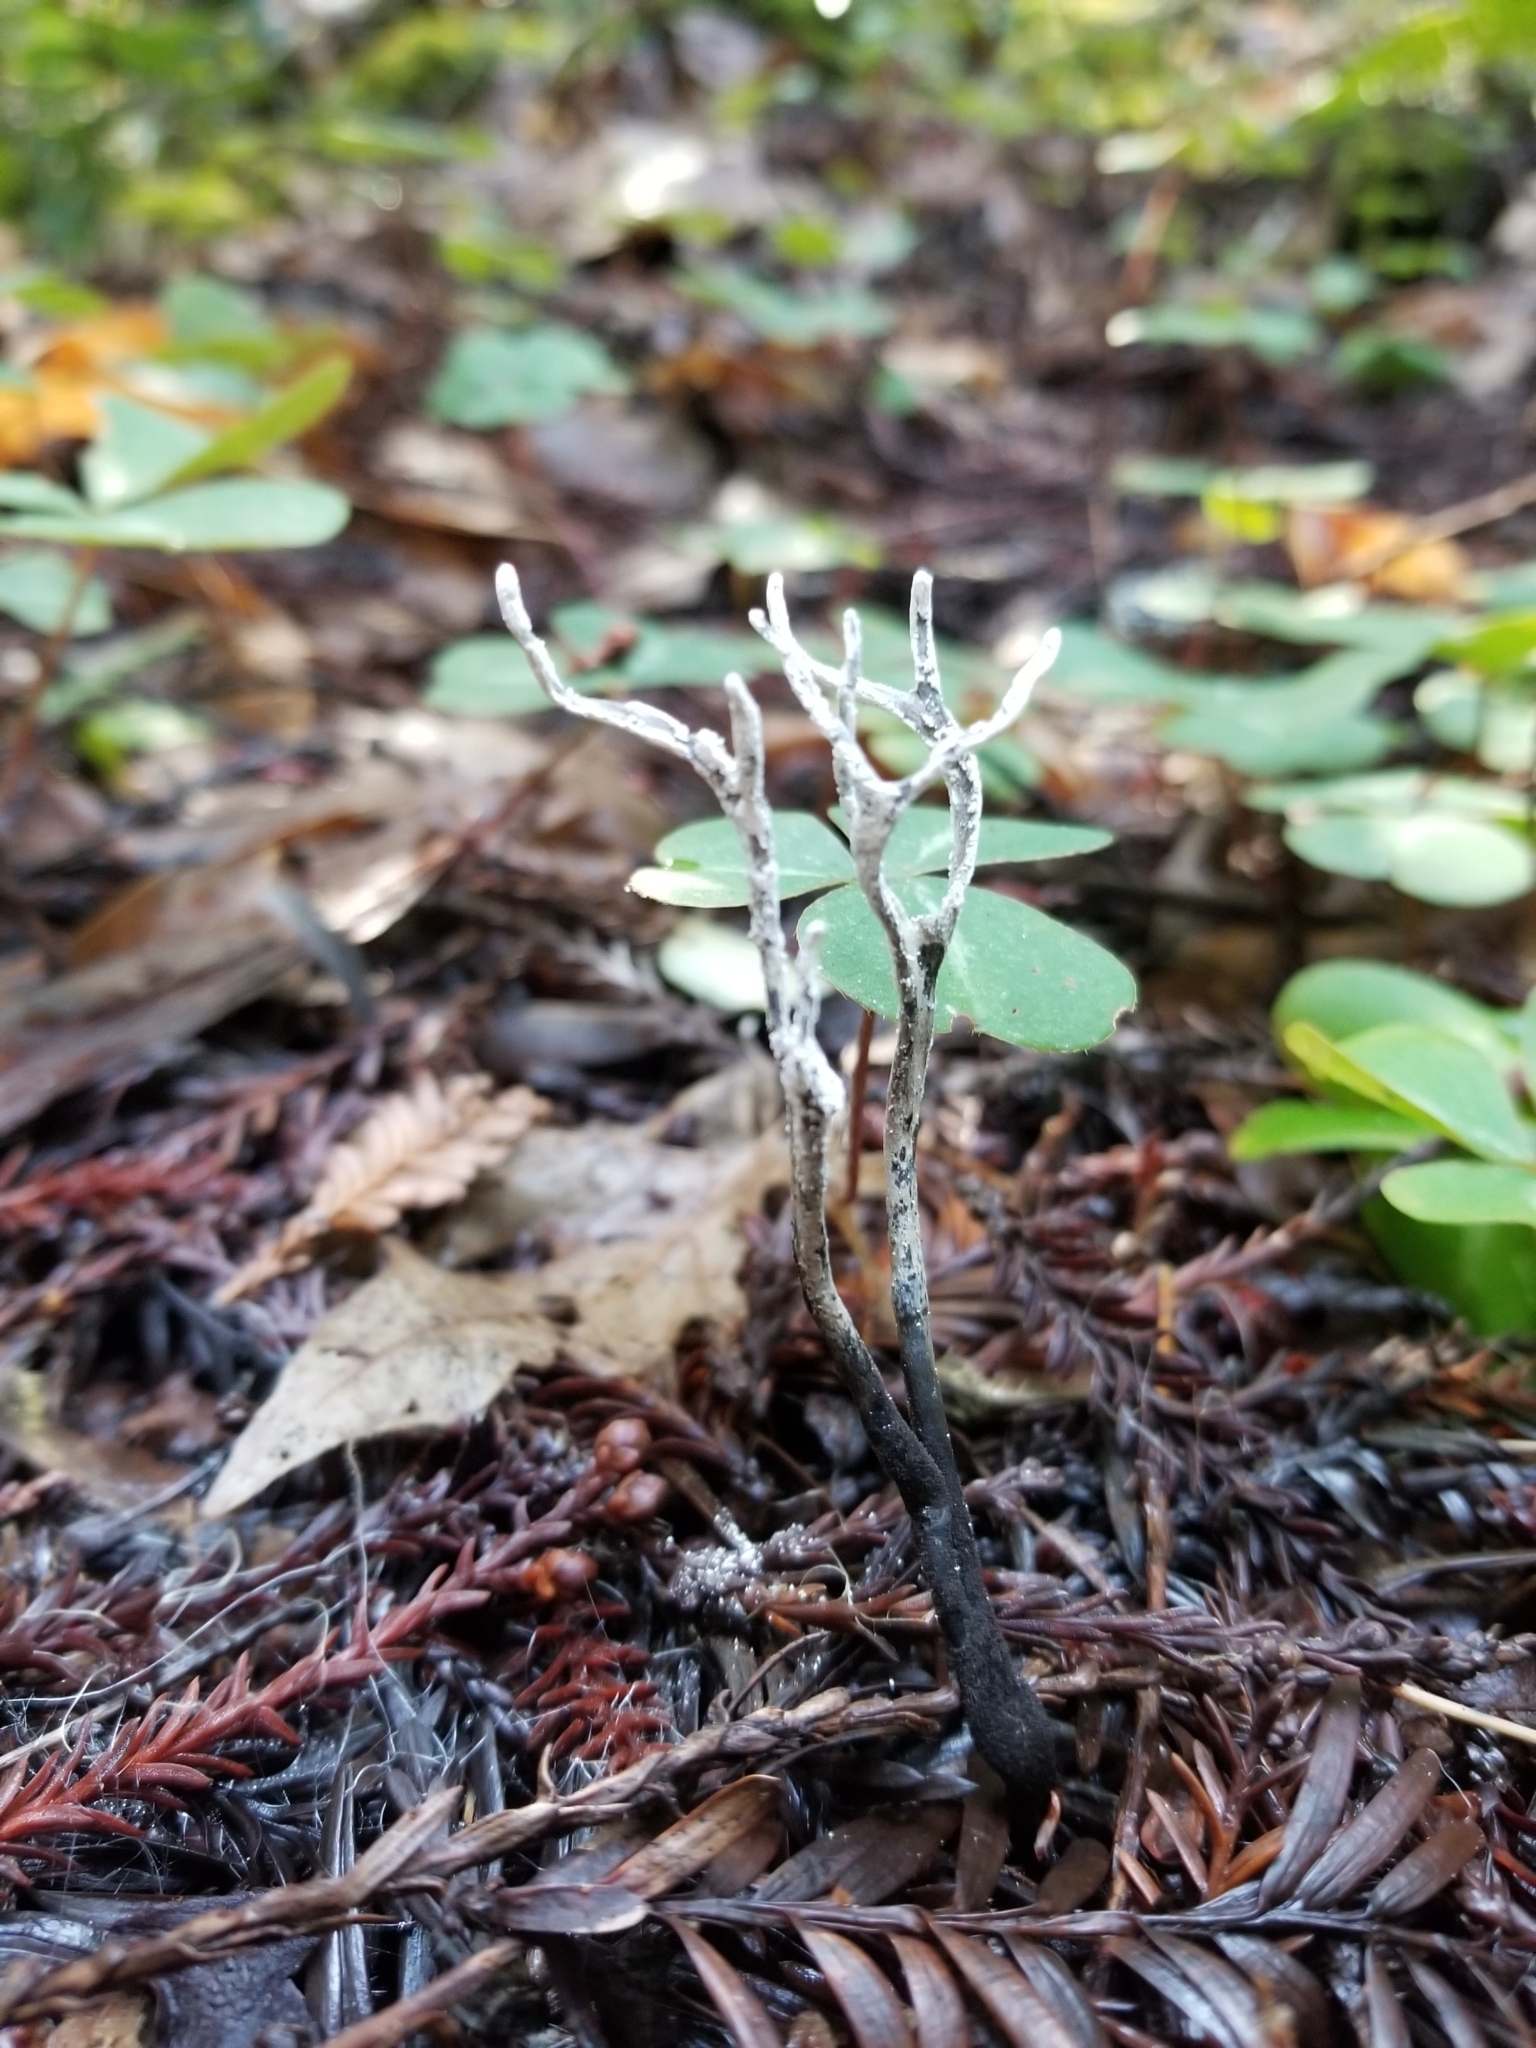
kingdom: Fungi
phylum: Ascomycota
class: Sordariomycetes
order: Xylariales
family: Xylariaceae
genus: Xylaria
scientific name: Xylaria hypoxylon
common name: Candle-snuff fungus
